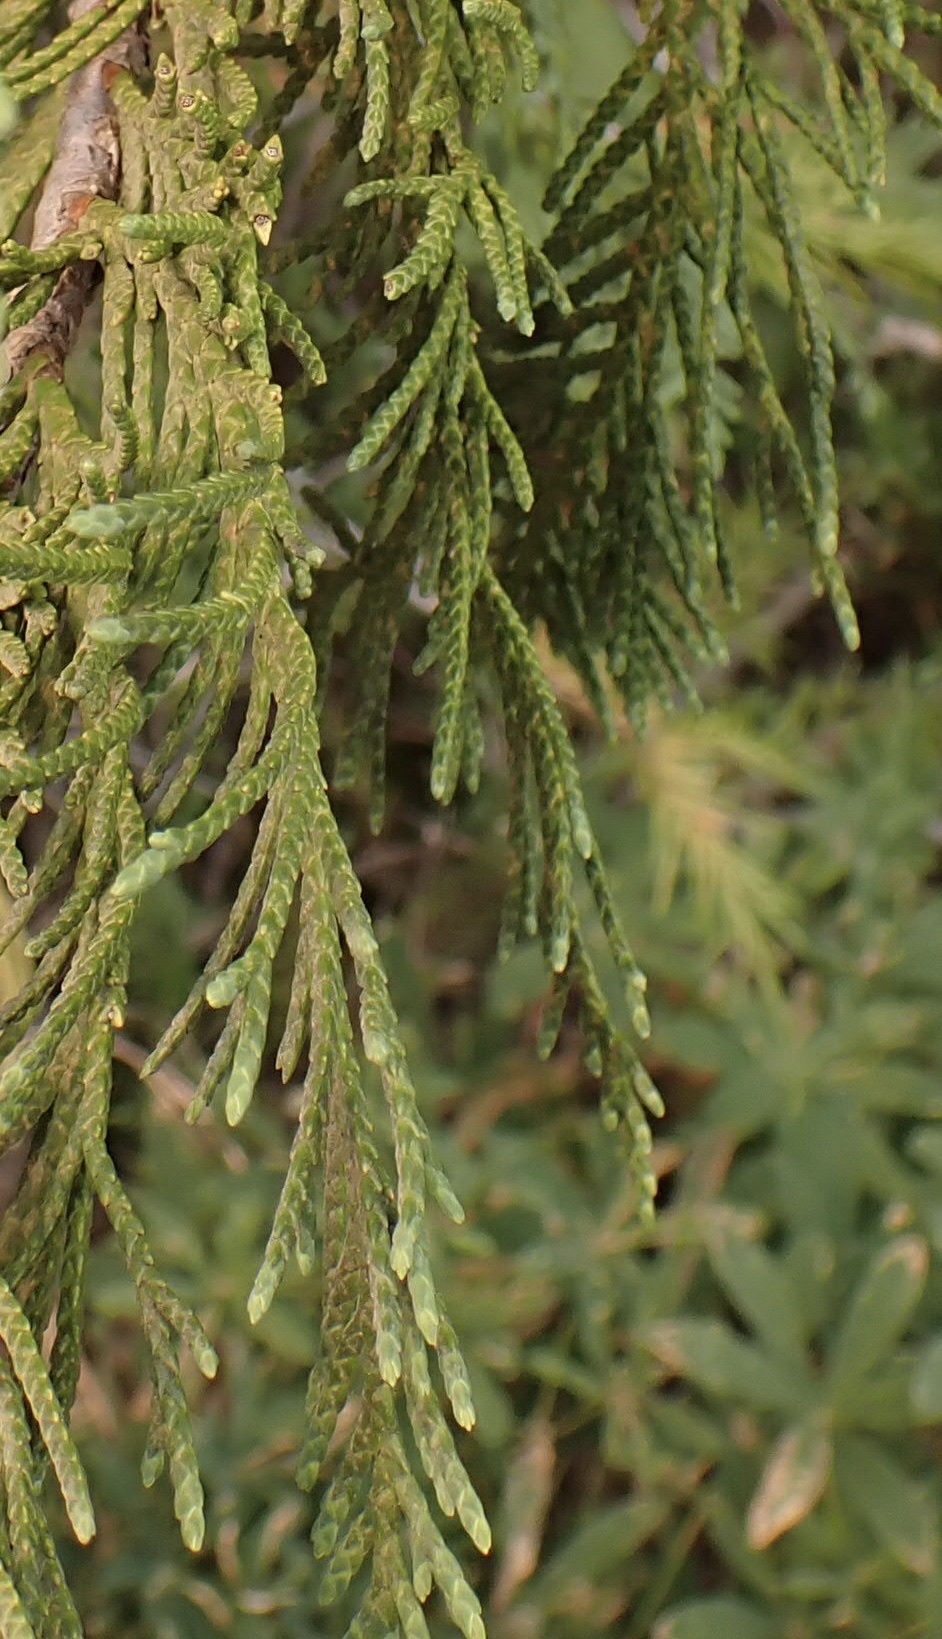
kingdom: Plantae
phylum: Tracheophyta
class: Pinopsida
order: Pinales
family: Cupressaceae
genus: Xanthocyparis
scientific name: Xanthocyparis nootkatensis
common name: Nootka cypress
